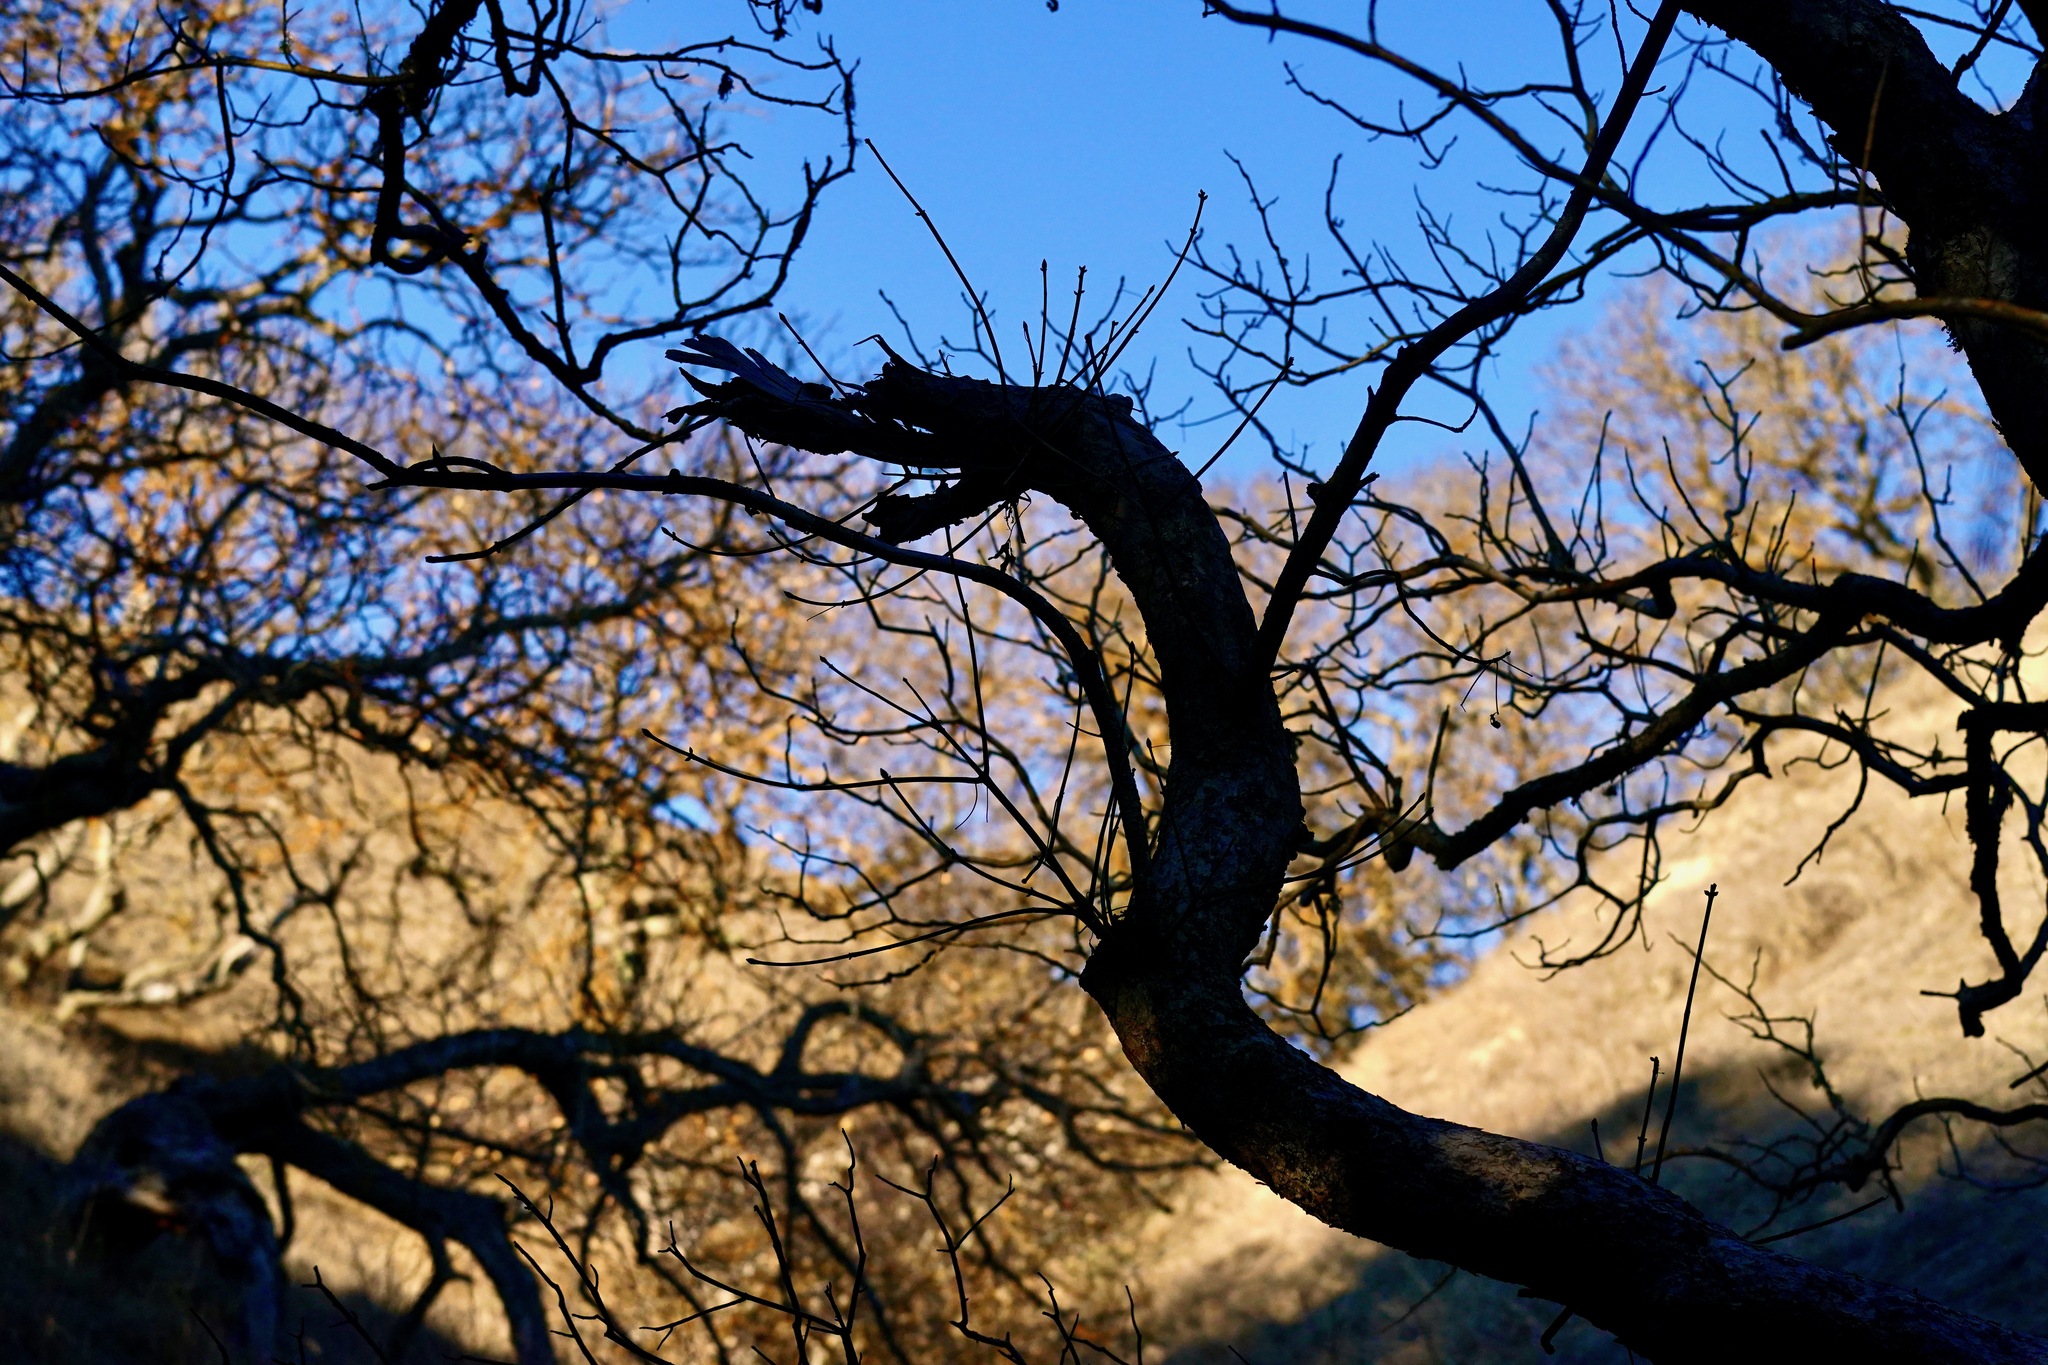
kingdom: Plantae
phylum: Tracheophyta
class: Magnoliopsida
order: Sapindales
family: Sapindaceae
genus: Aesculus
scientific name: Aesculus californica
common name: California buckeye
